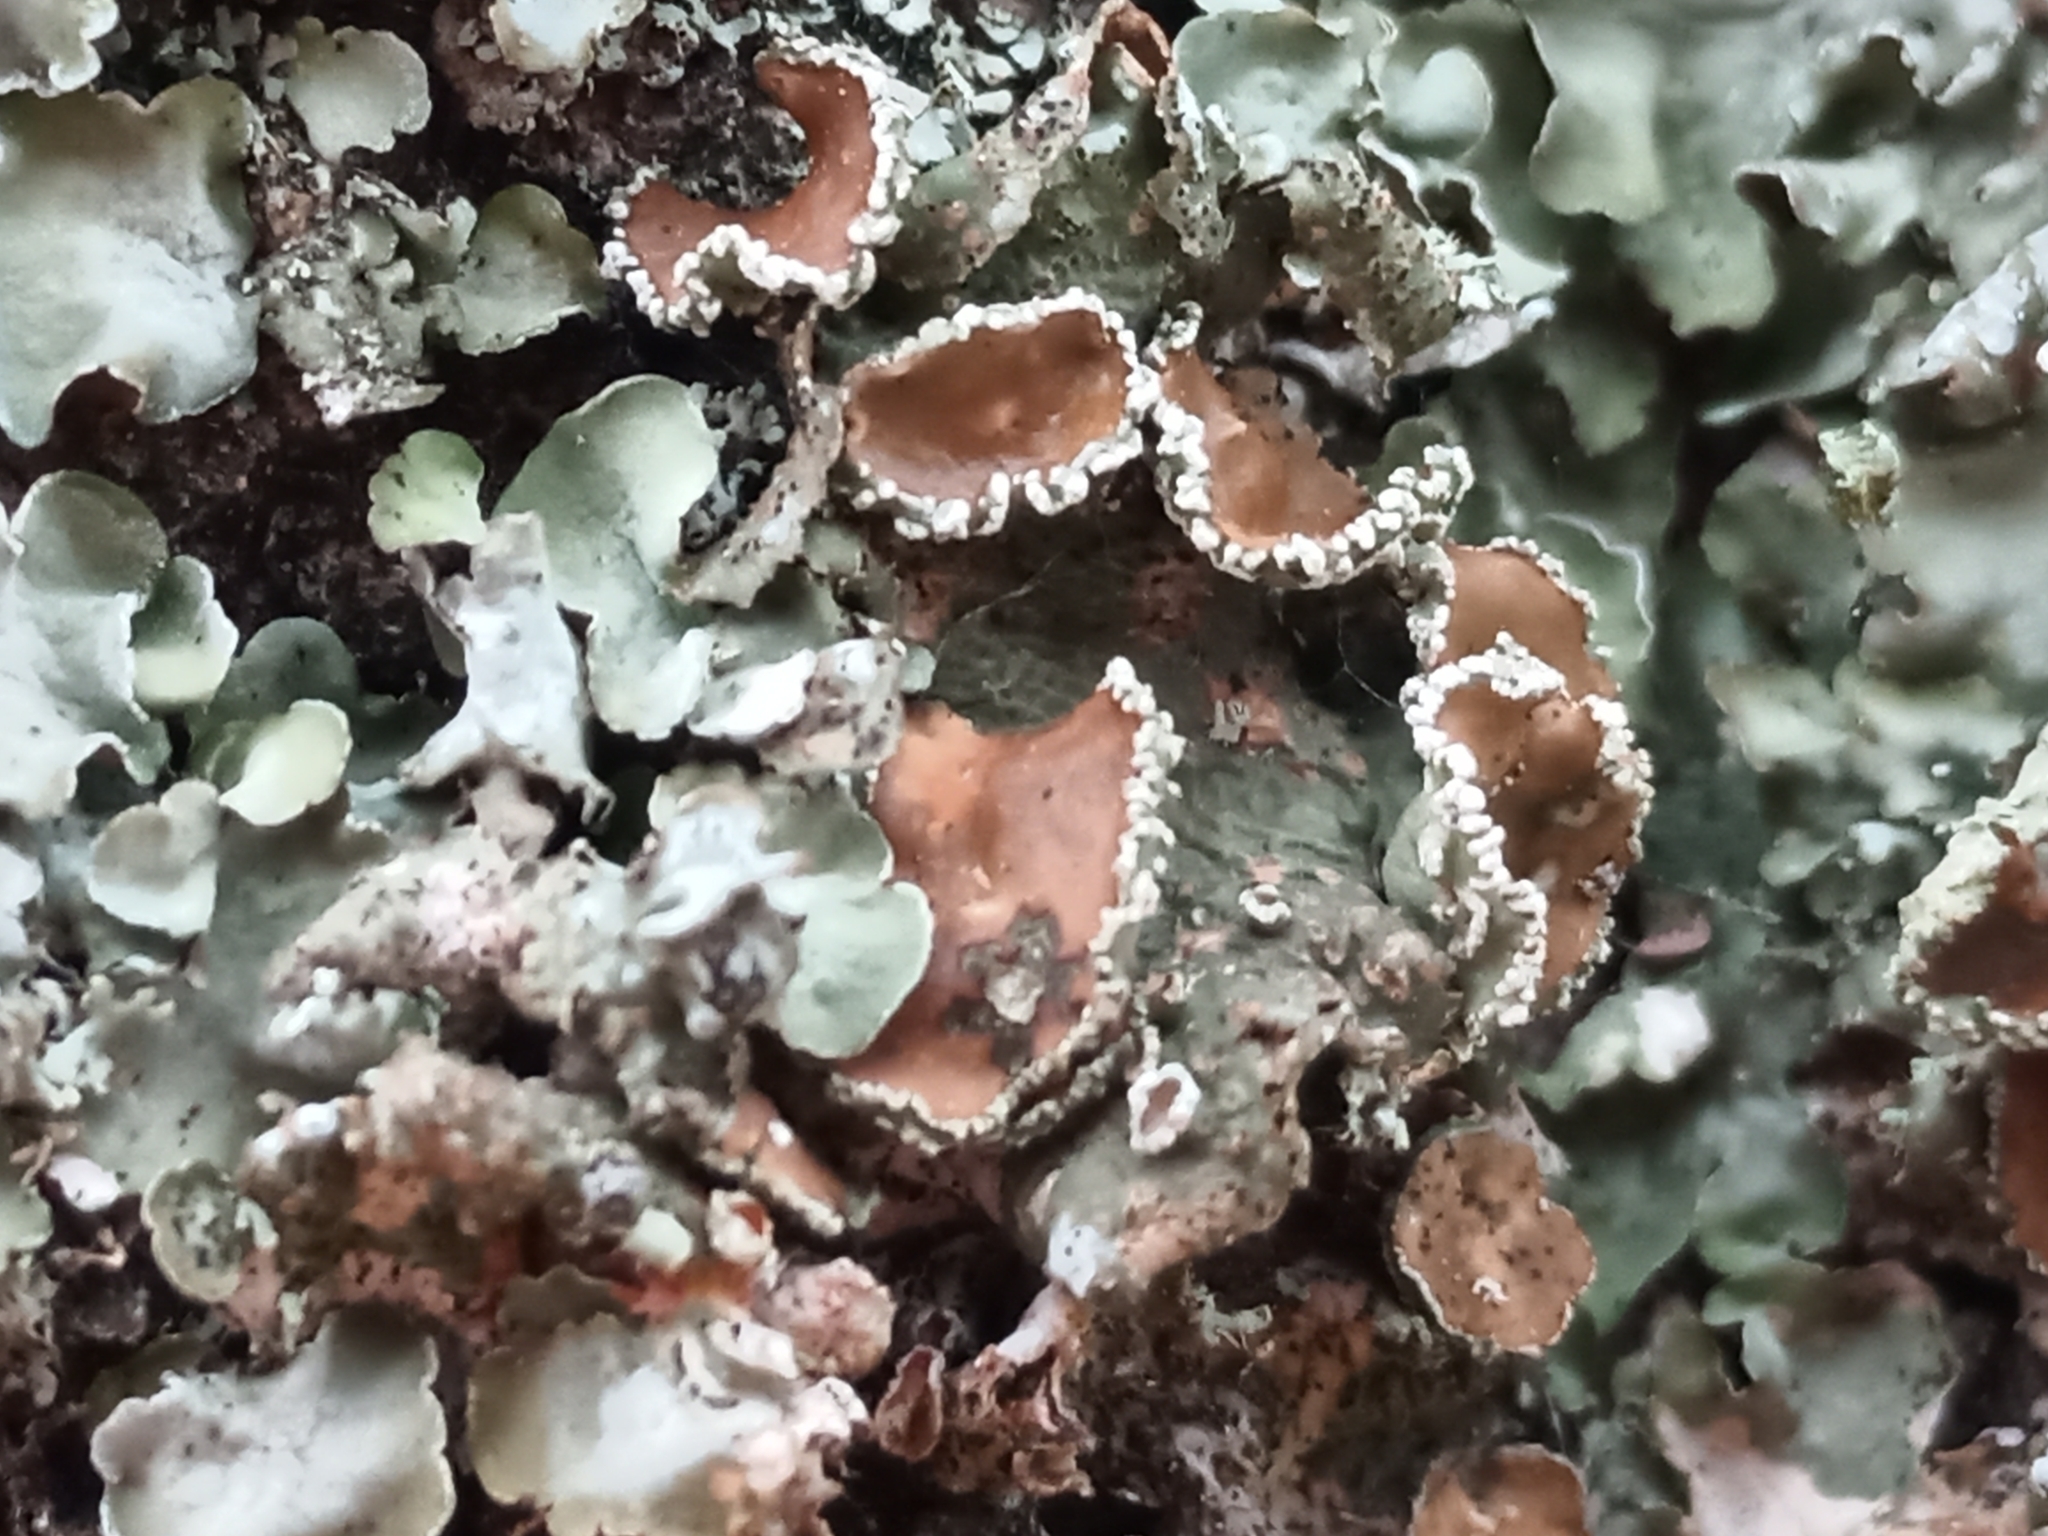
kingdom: Fungi
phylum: Ascomycota
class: Lecanoromycetes
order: Lecanorales
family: Parmeliaceae
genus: Pleurosticta
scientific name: Pleurosticta acetabulum
